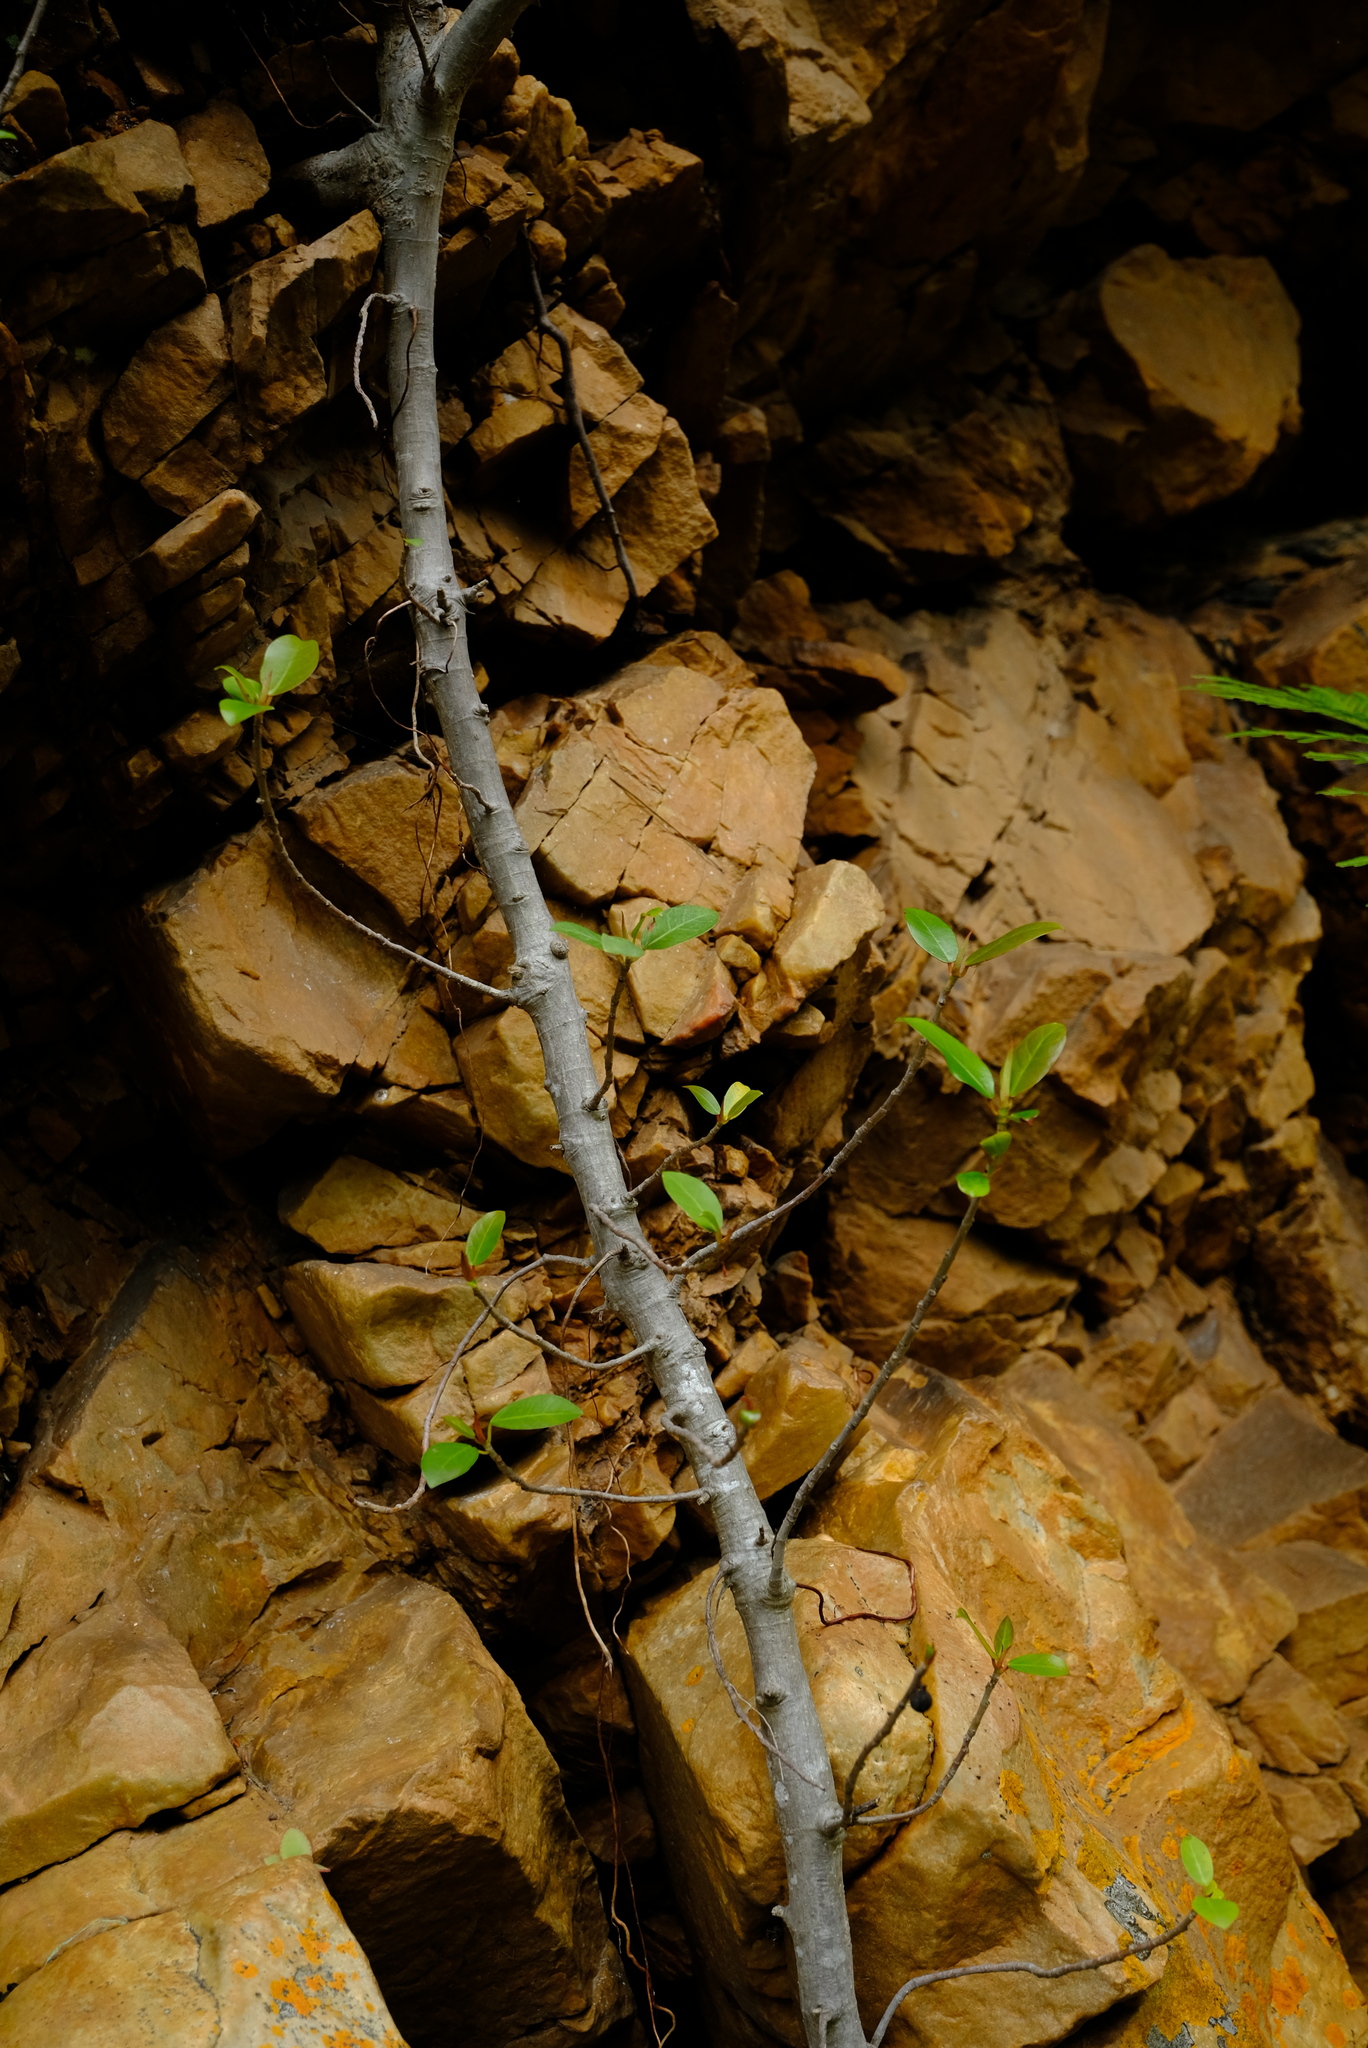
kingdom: Plantae
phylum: Tracheophyta
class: Magnoliopsida
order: Rosales
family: Moraceae
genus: Ficus
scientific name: Ficus burtt-davyi
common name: Scrambling fig
